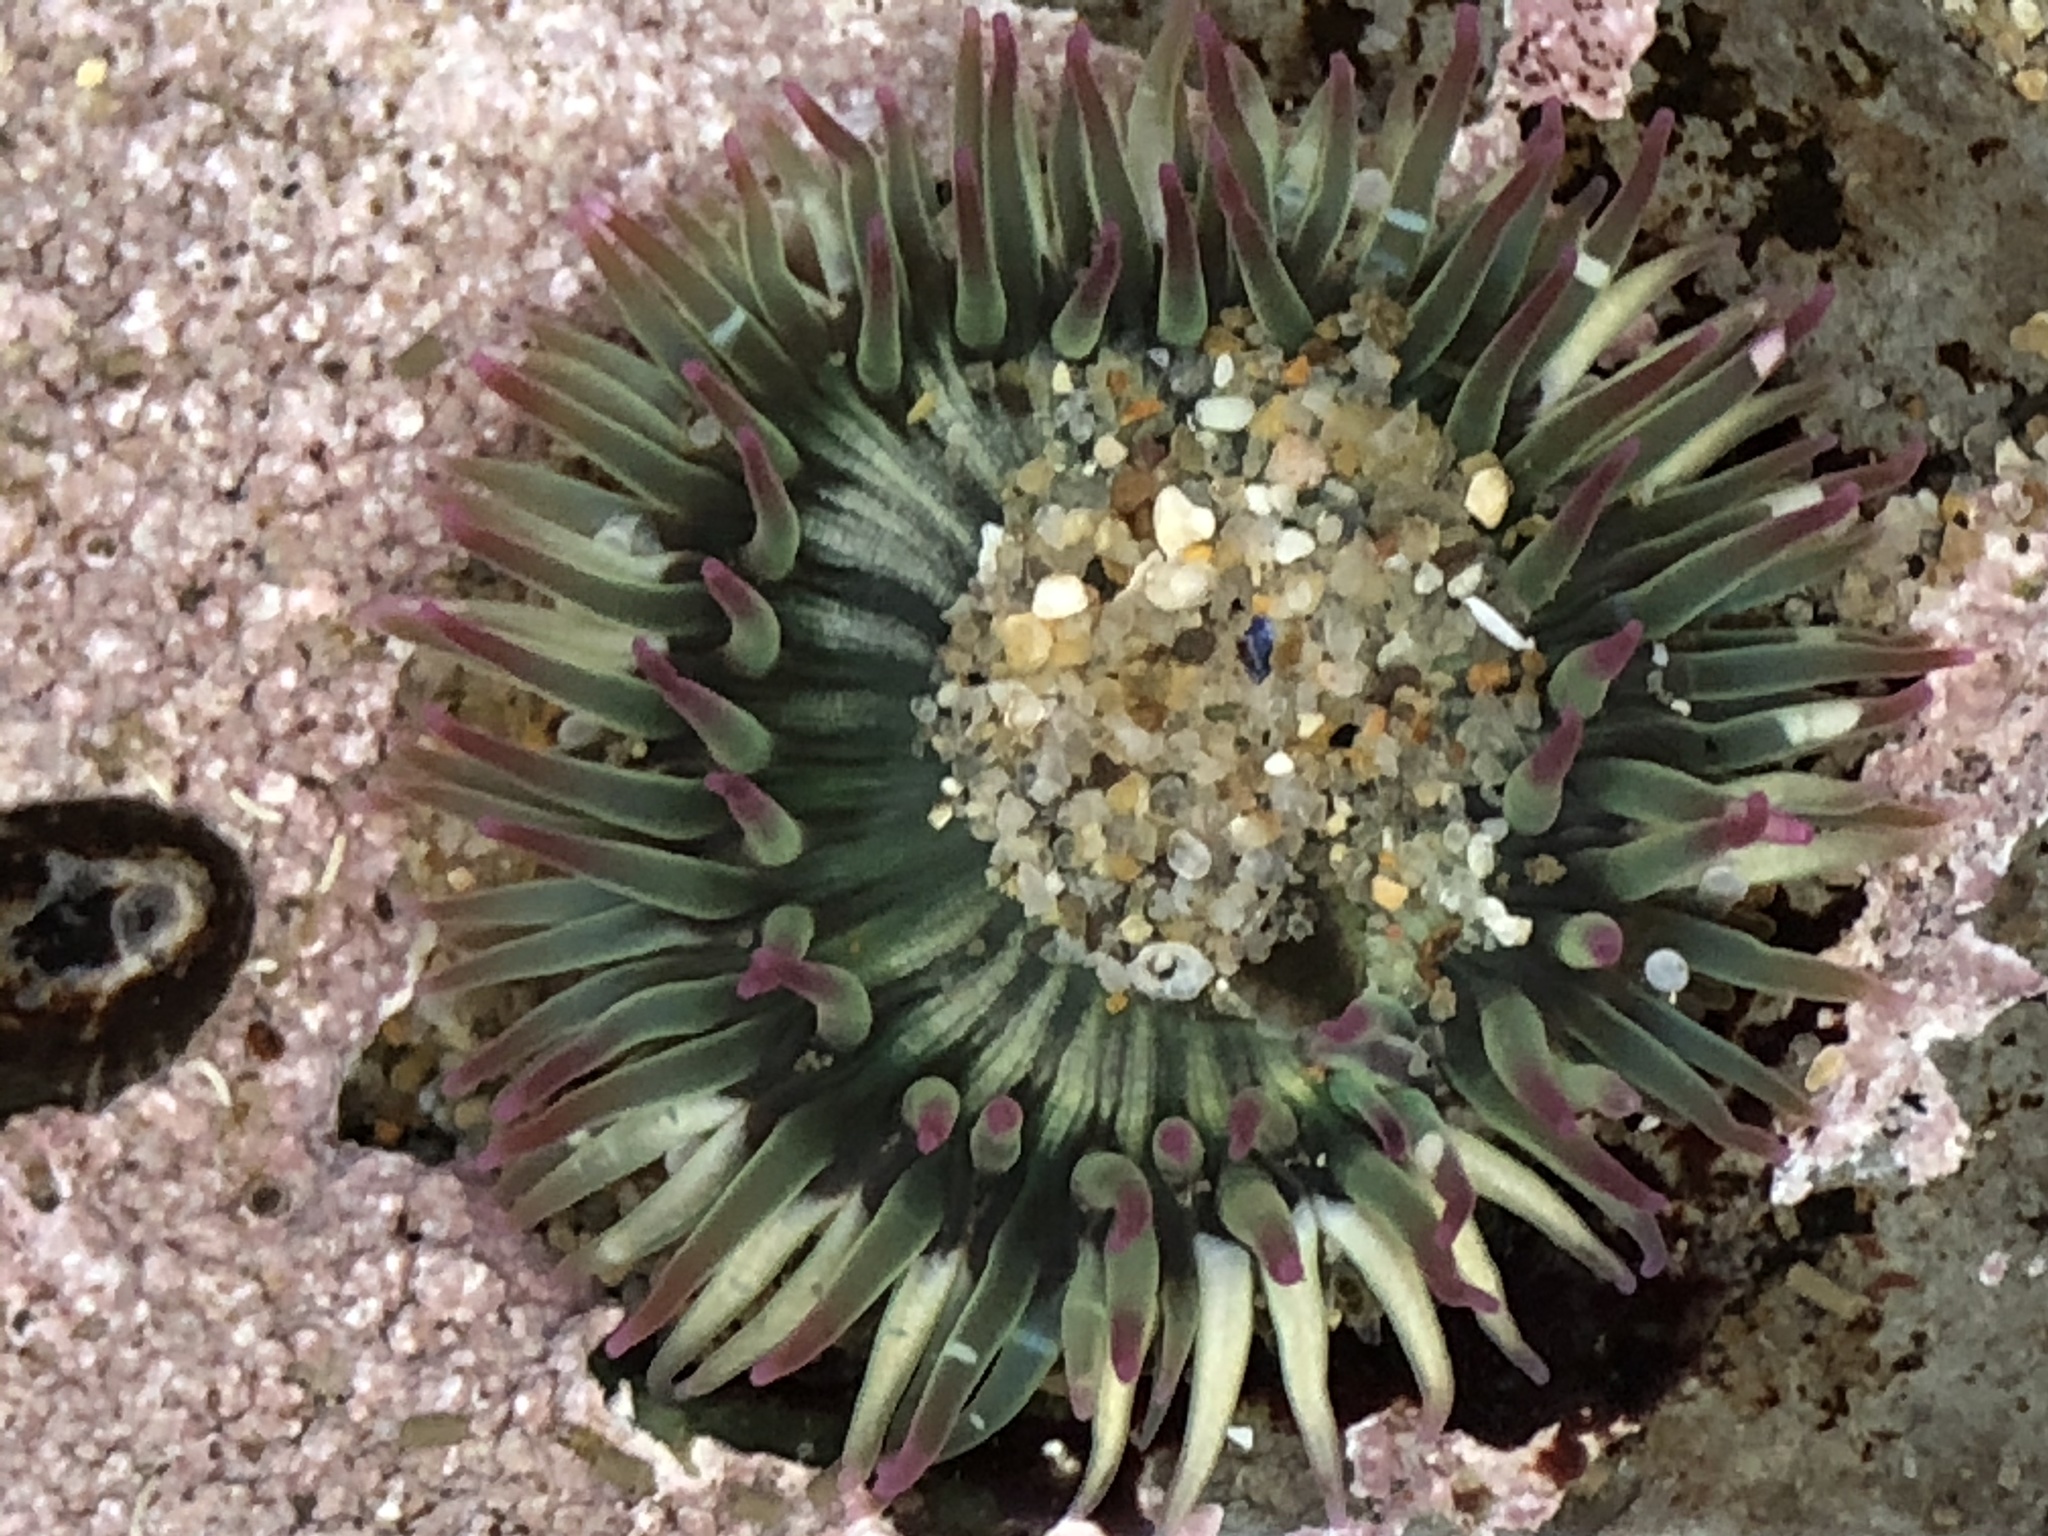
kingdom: Animalia
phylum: Cnidaria
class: Anthozoa
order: Actiniaria
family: Actiniidae
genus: Anthopleura
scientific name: Anthopleura elegantissima
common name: Clonal anemone
